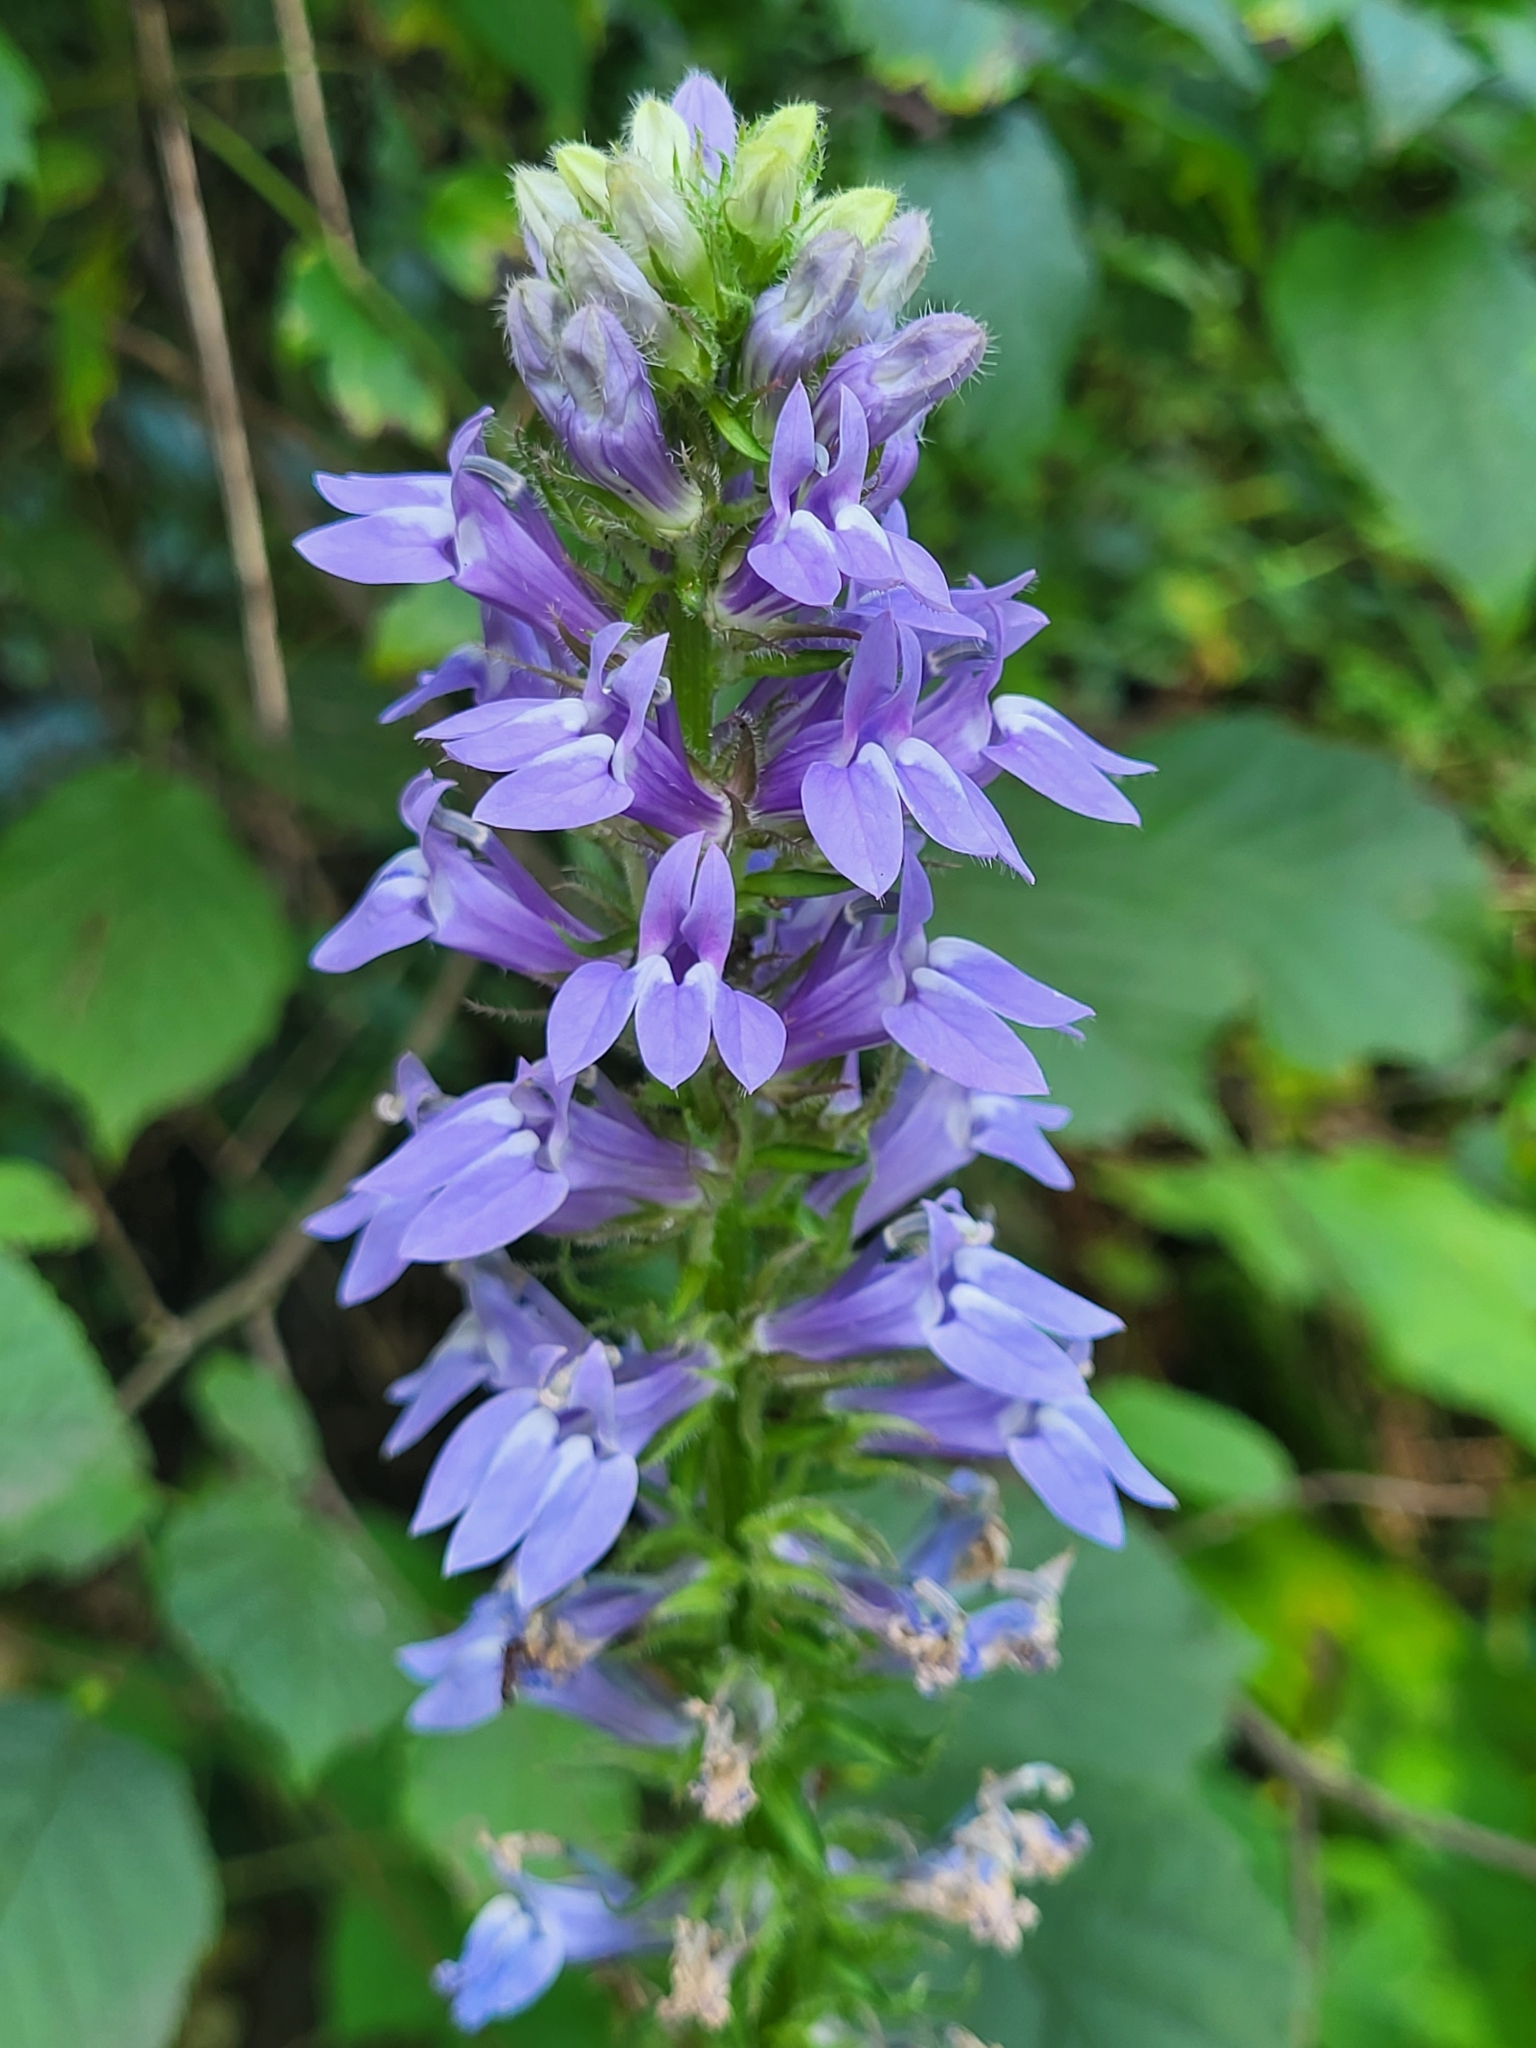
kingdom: Plantae
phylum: Tracheophyta
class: Magnoliopsida
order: Asterales
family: Campanulaceae
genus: Lobelia
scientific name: Lobelia siphilitica
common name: Great lobelia
